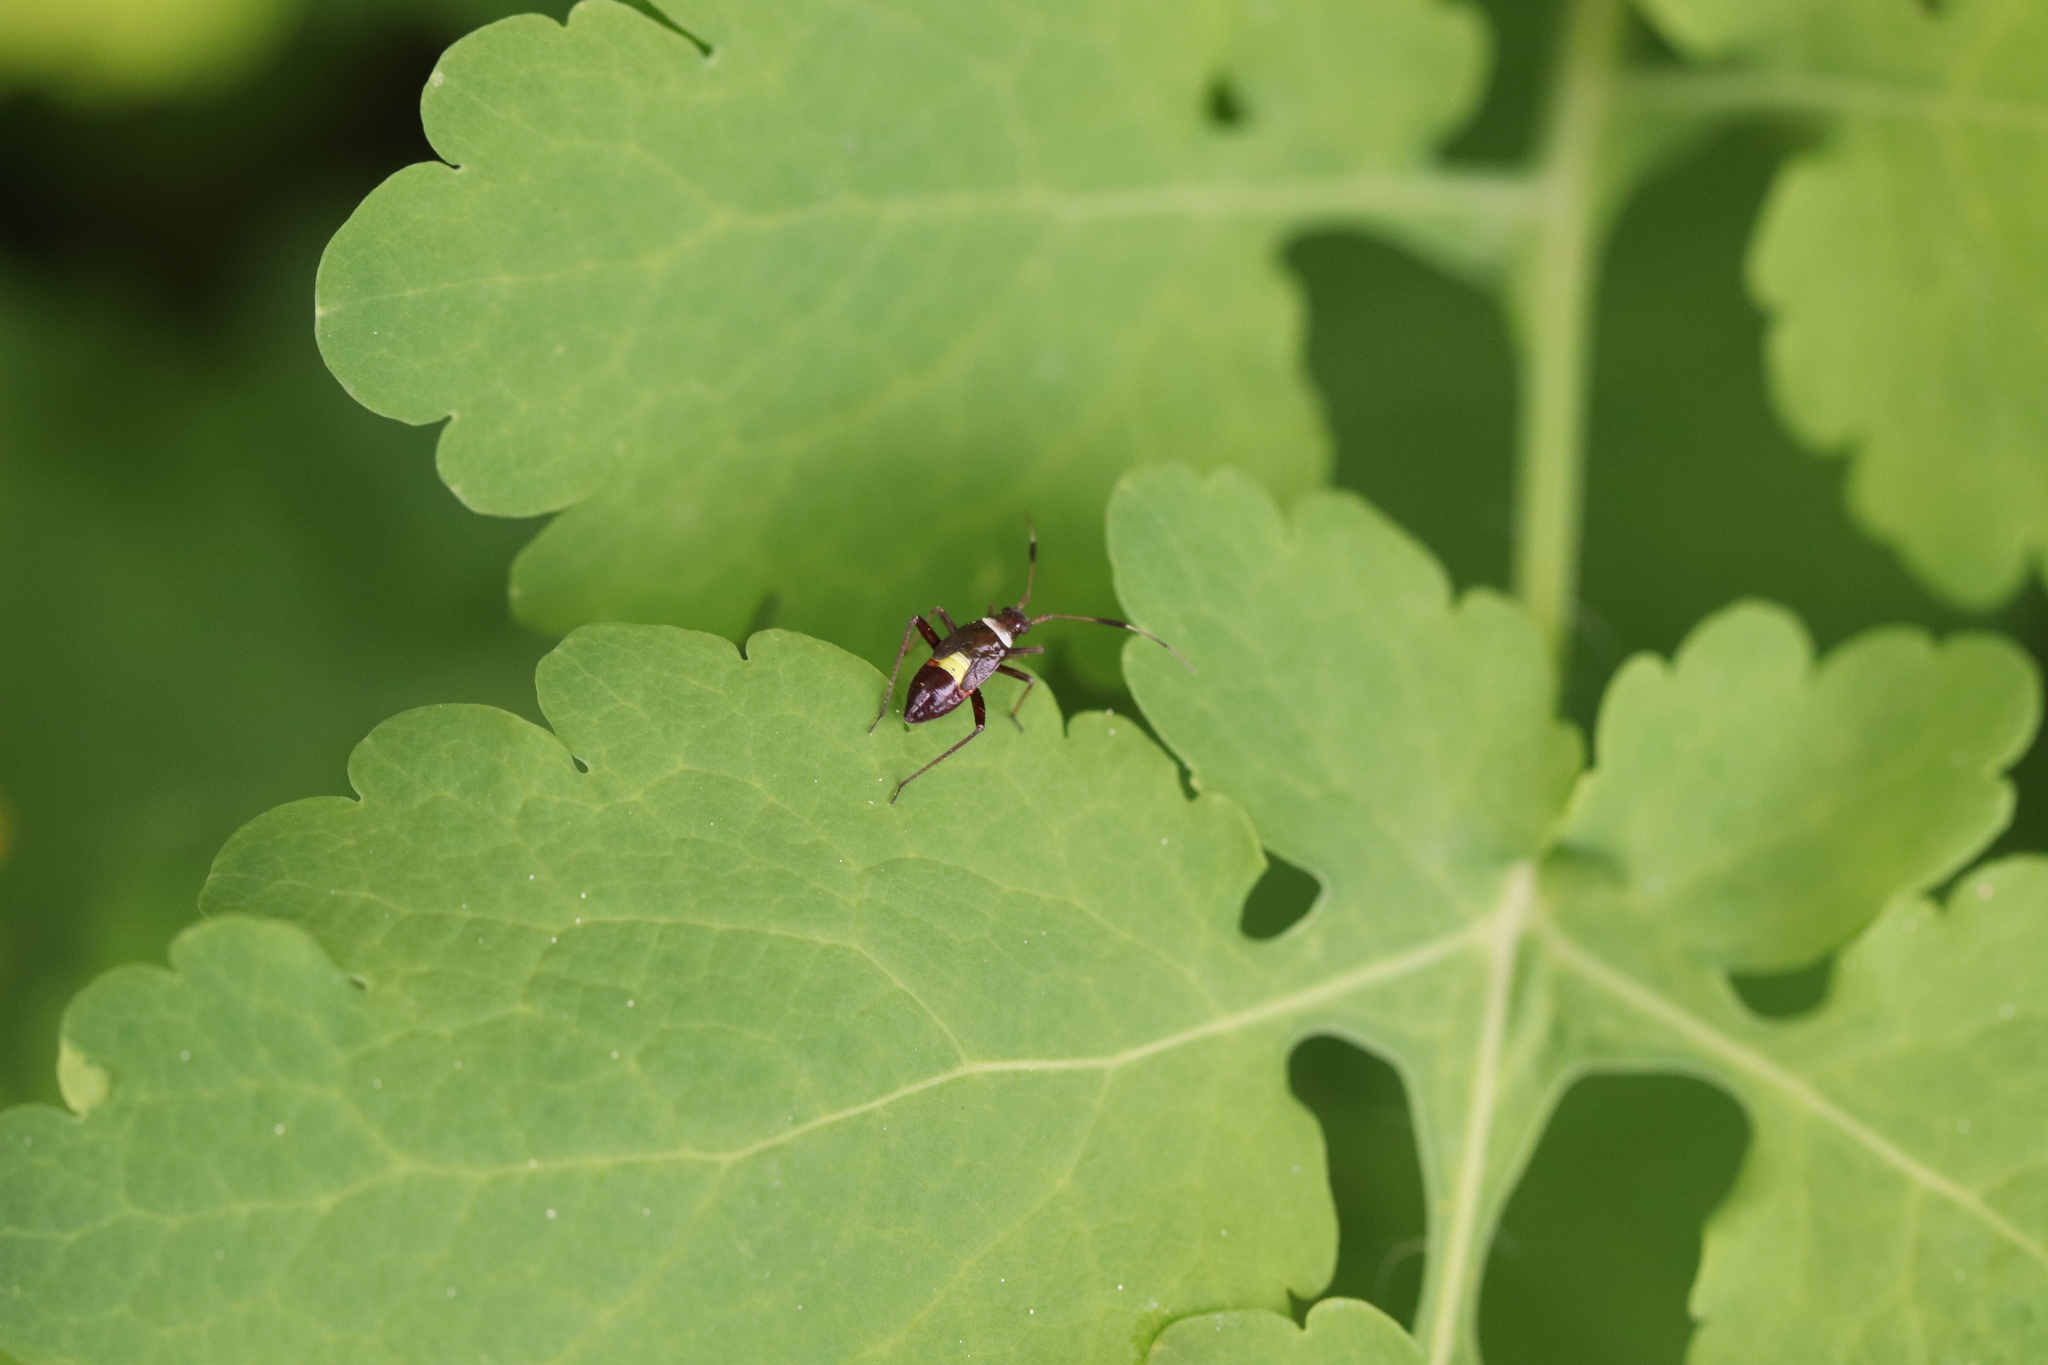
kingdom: Animalia
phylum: Arthropoda
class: Insecta
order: Hemiptera
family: Miridae
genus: Closterotomus
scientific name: Closterotomus biclavatus
